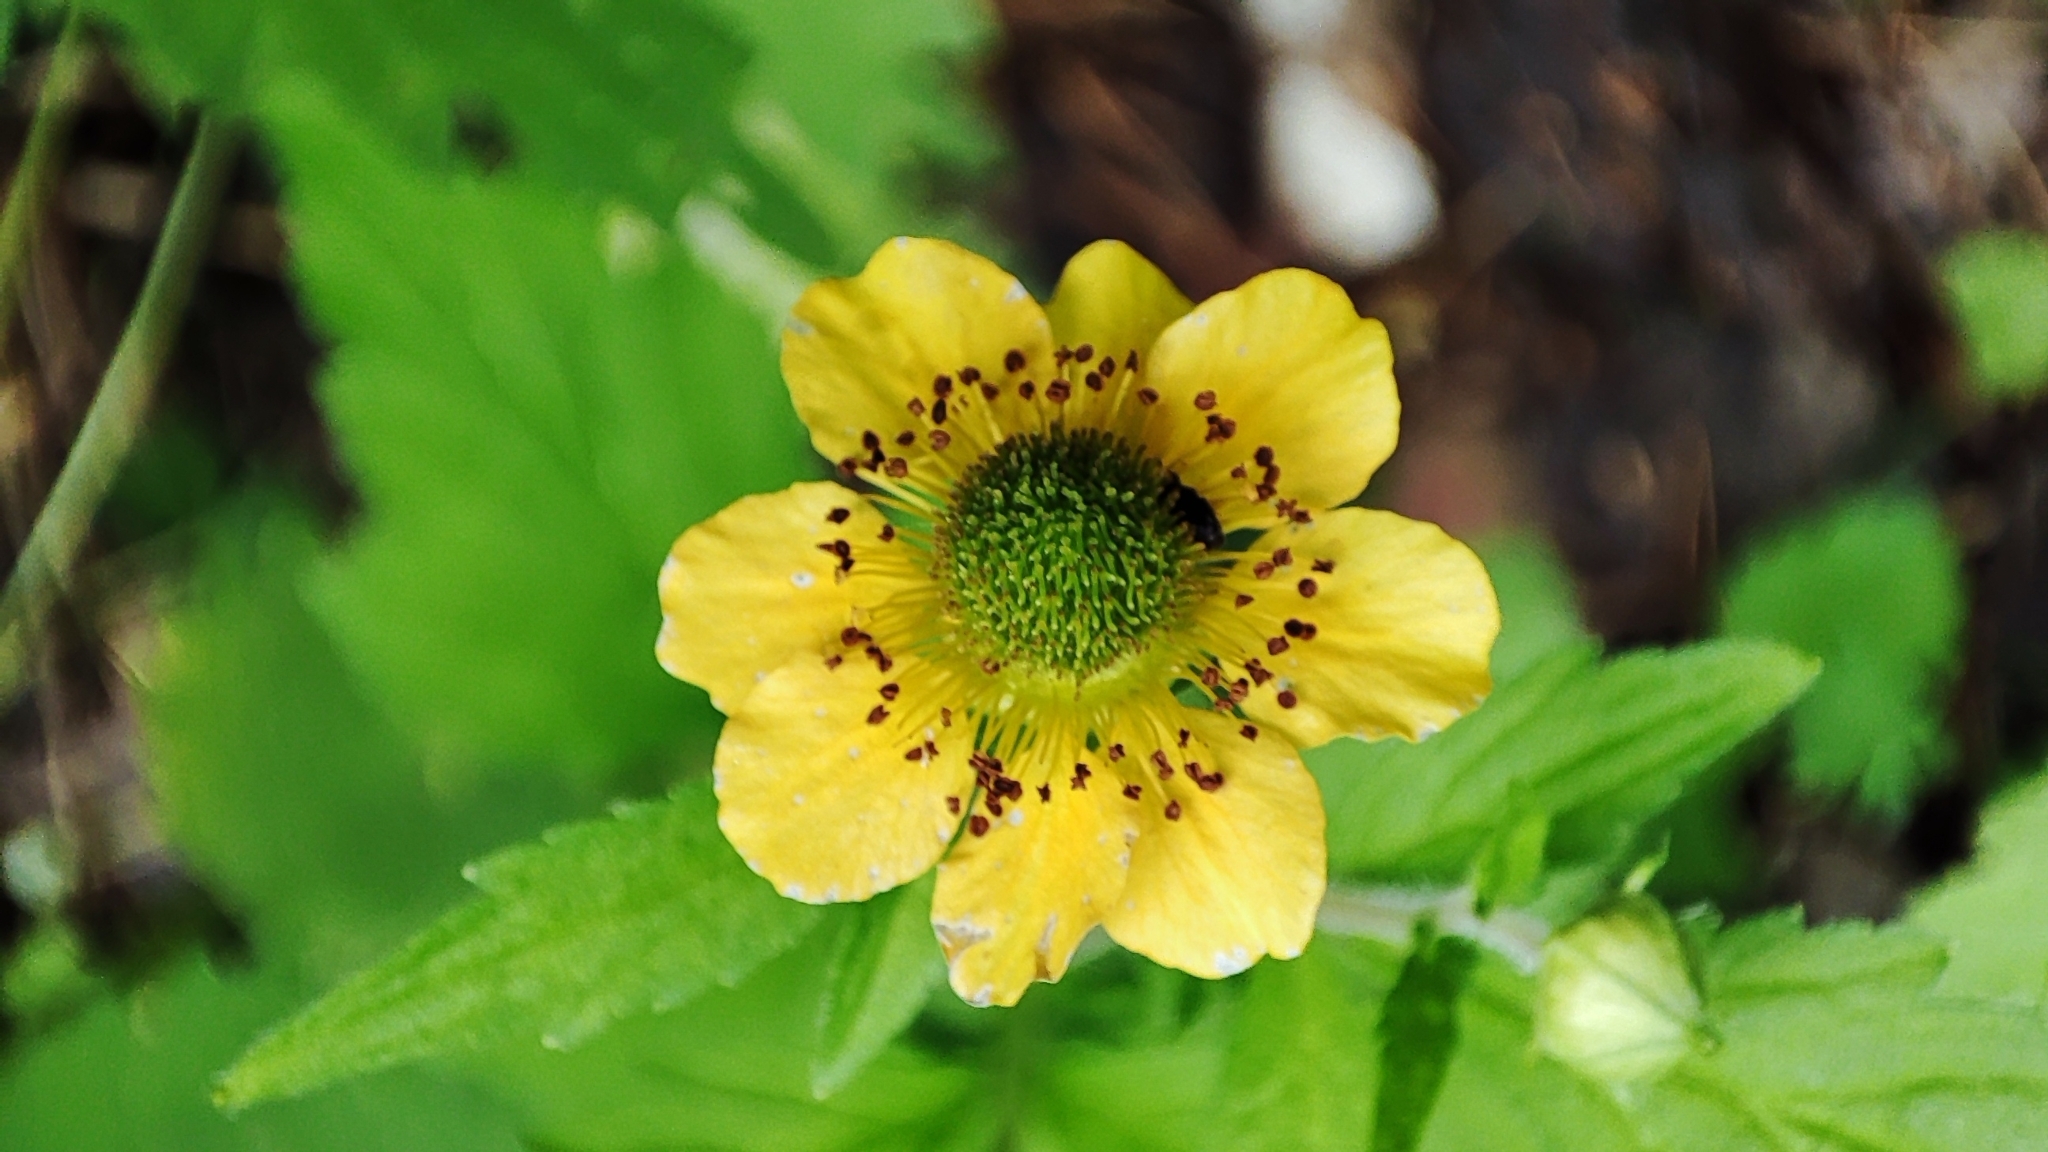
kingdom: Plantae
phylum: Tracheophyta
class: Magnoliopsida
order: Rosales
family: Rosaceae
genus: Geum
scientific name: Geum aleppicum
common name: Yellow avens
